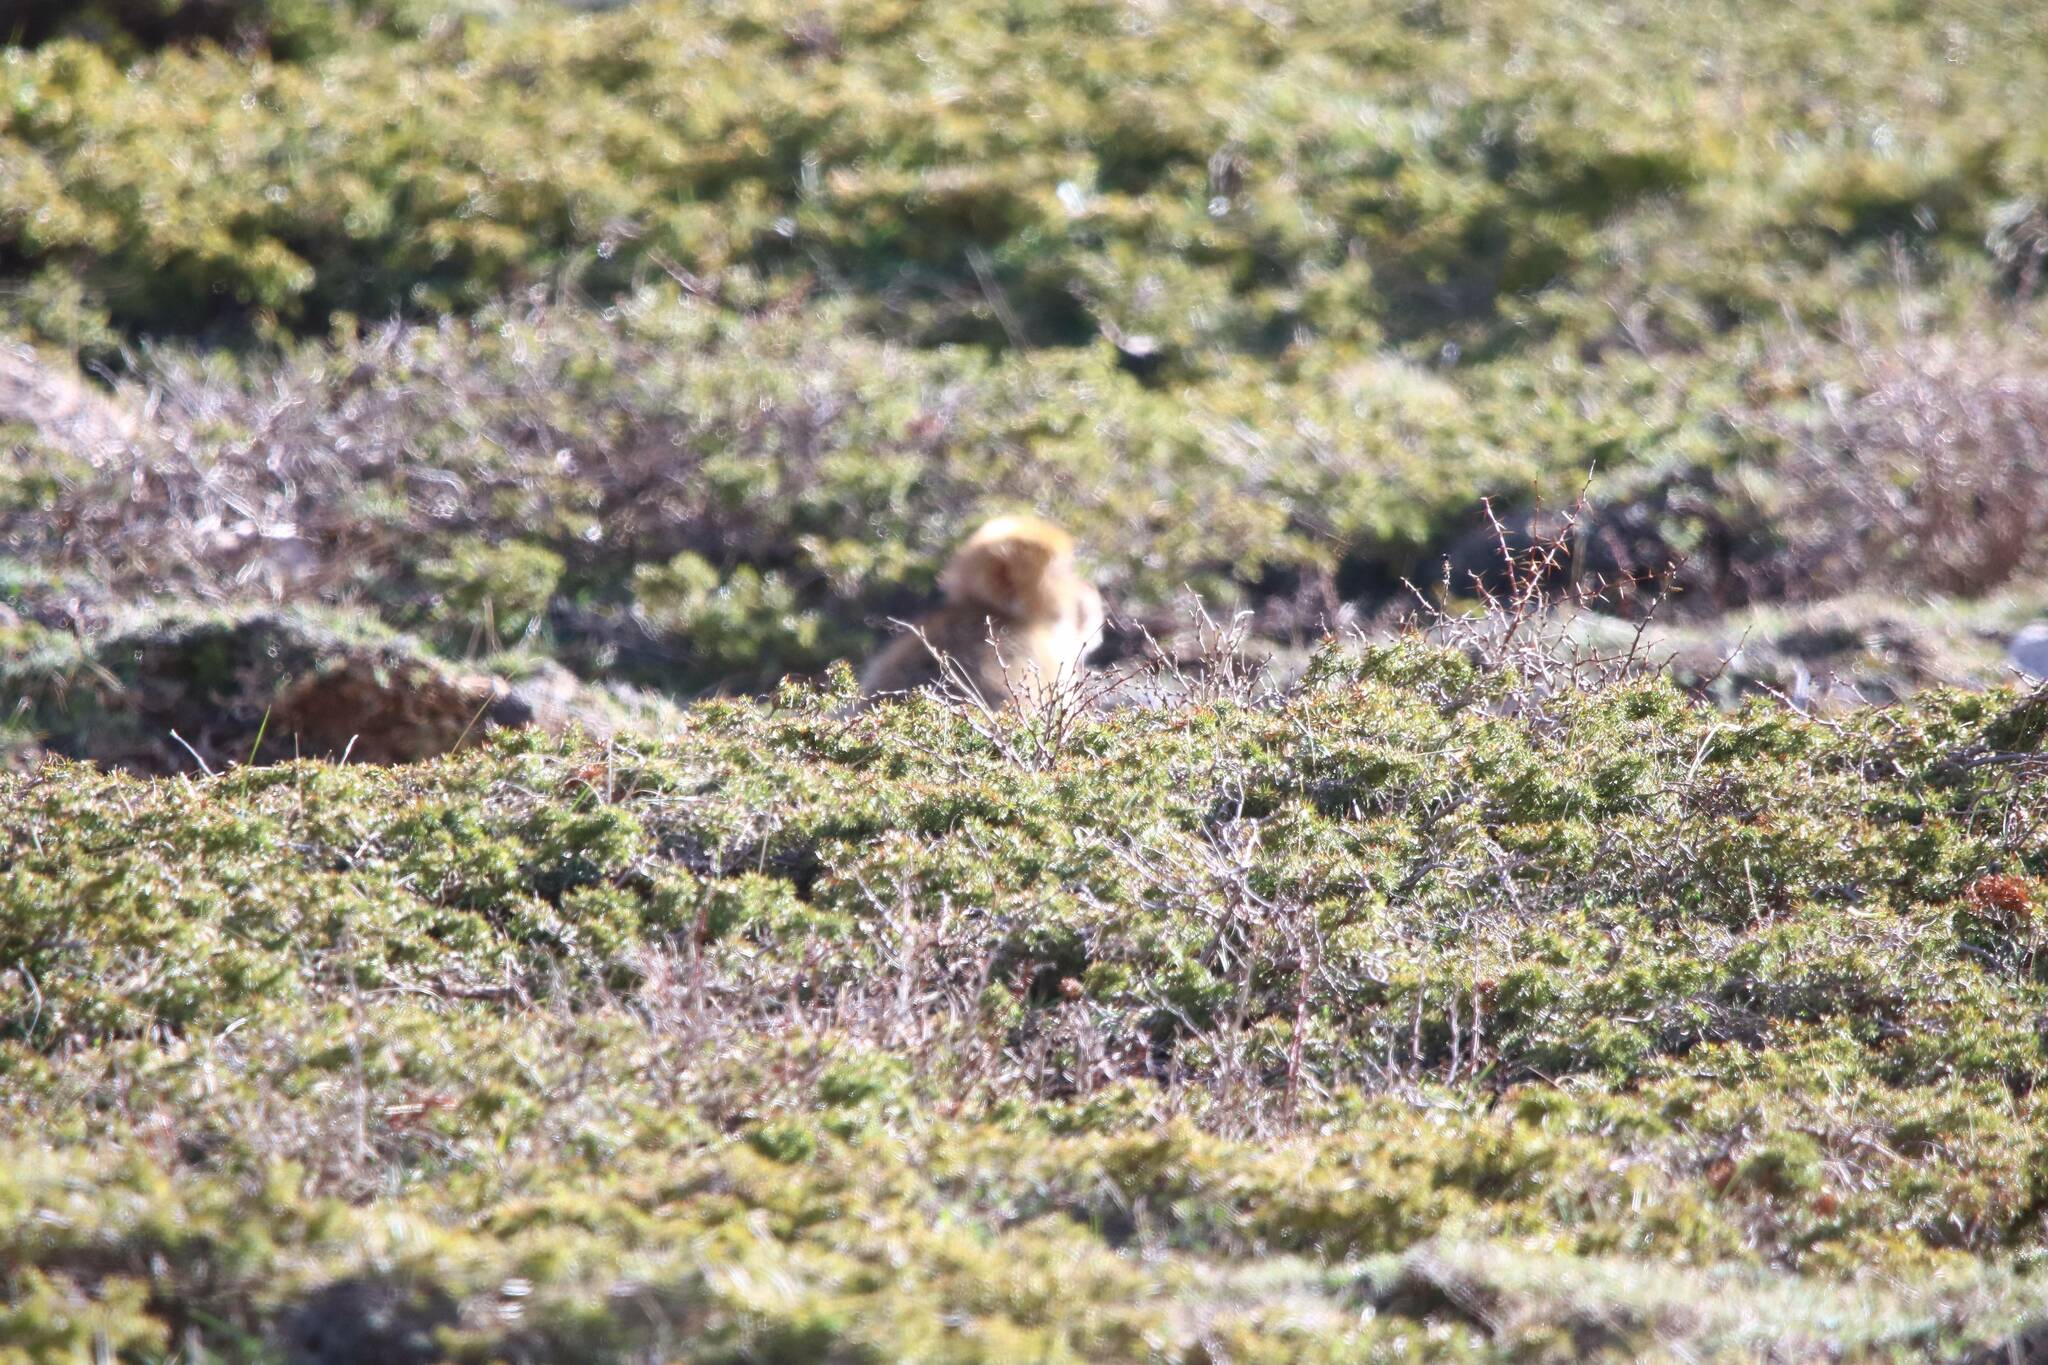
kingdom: Animalia
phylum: Chordata
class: Mammalia
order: Primates
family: Cercopithecidae
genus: Macaca
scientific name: Macaca sylvanus
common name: Barbary macaque
